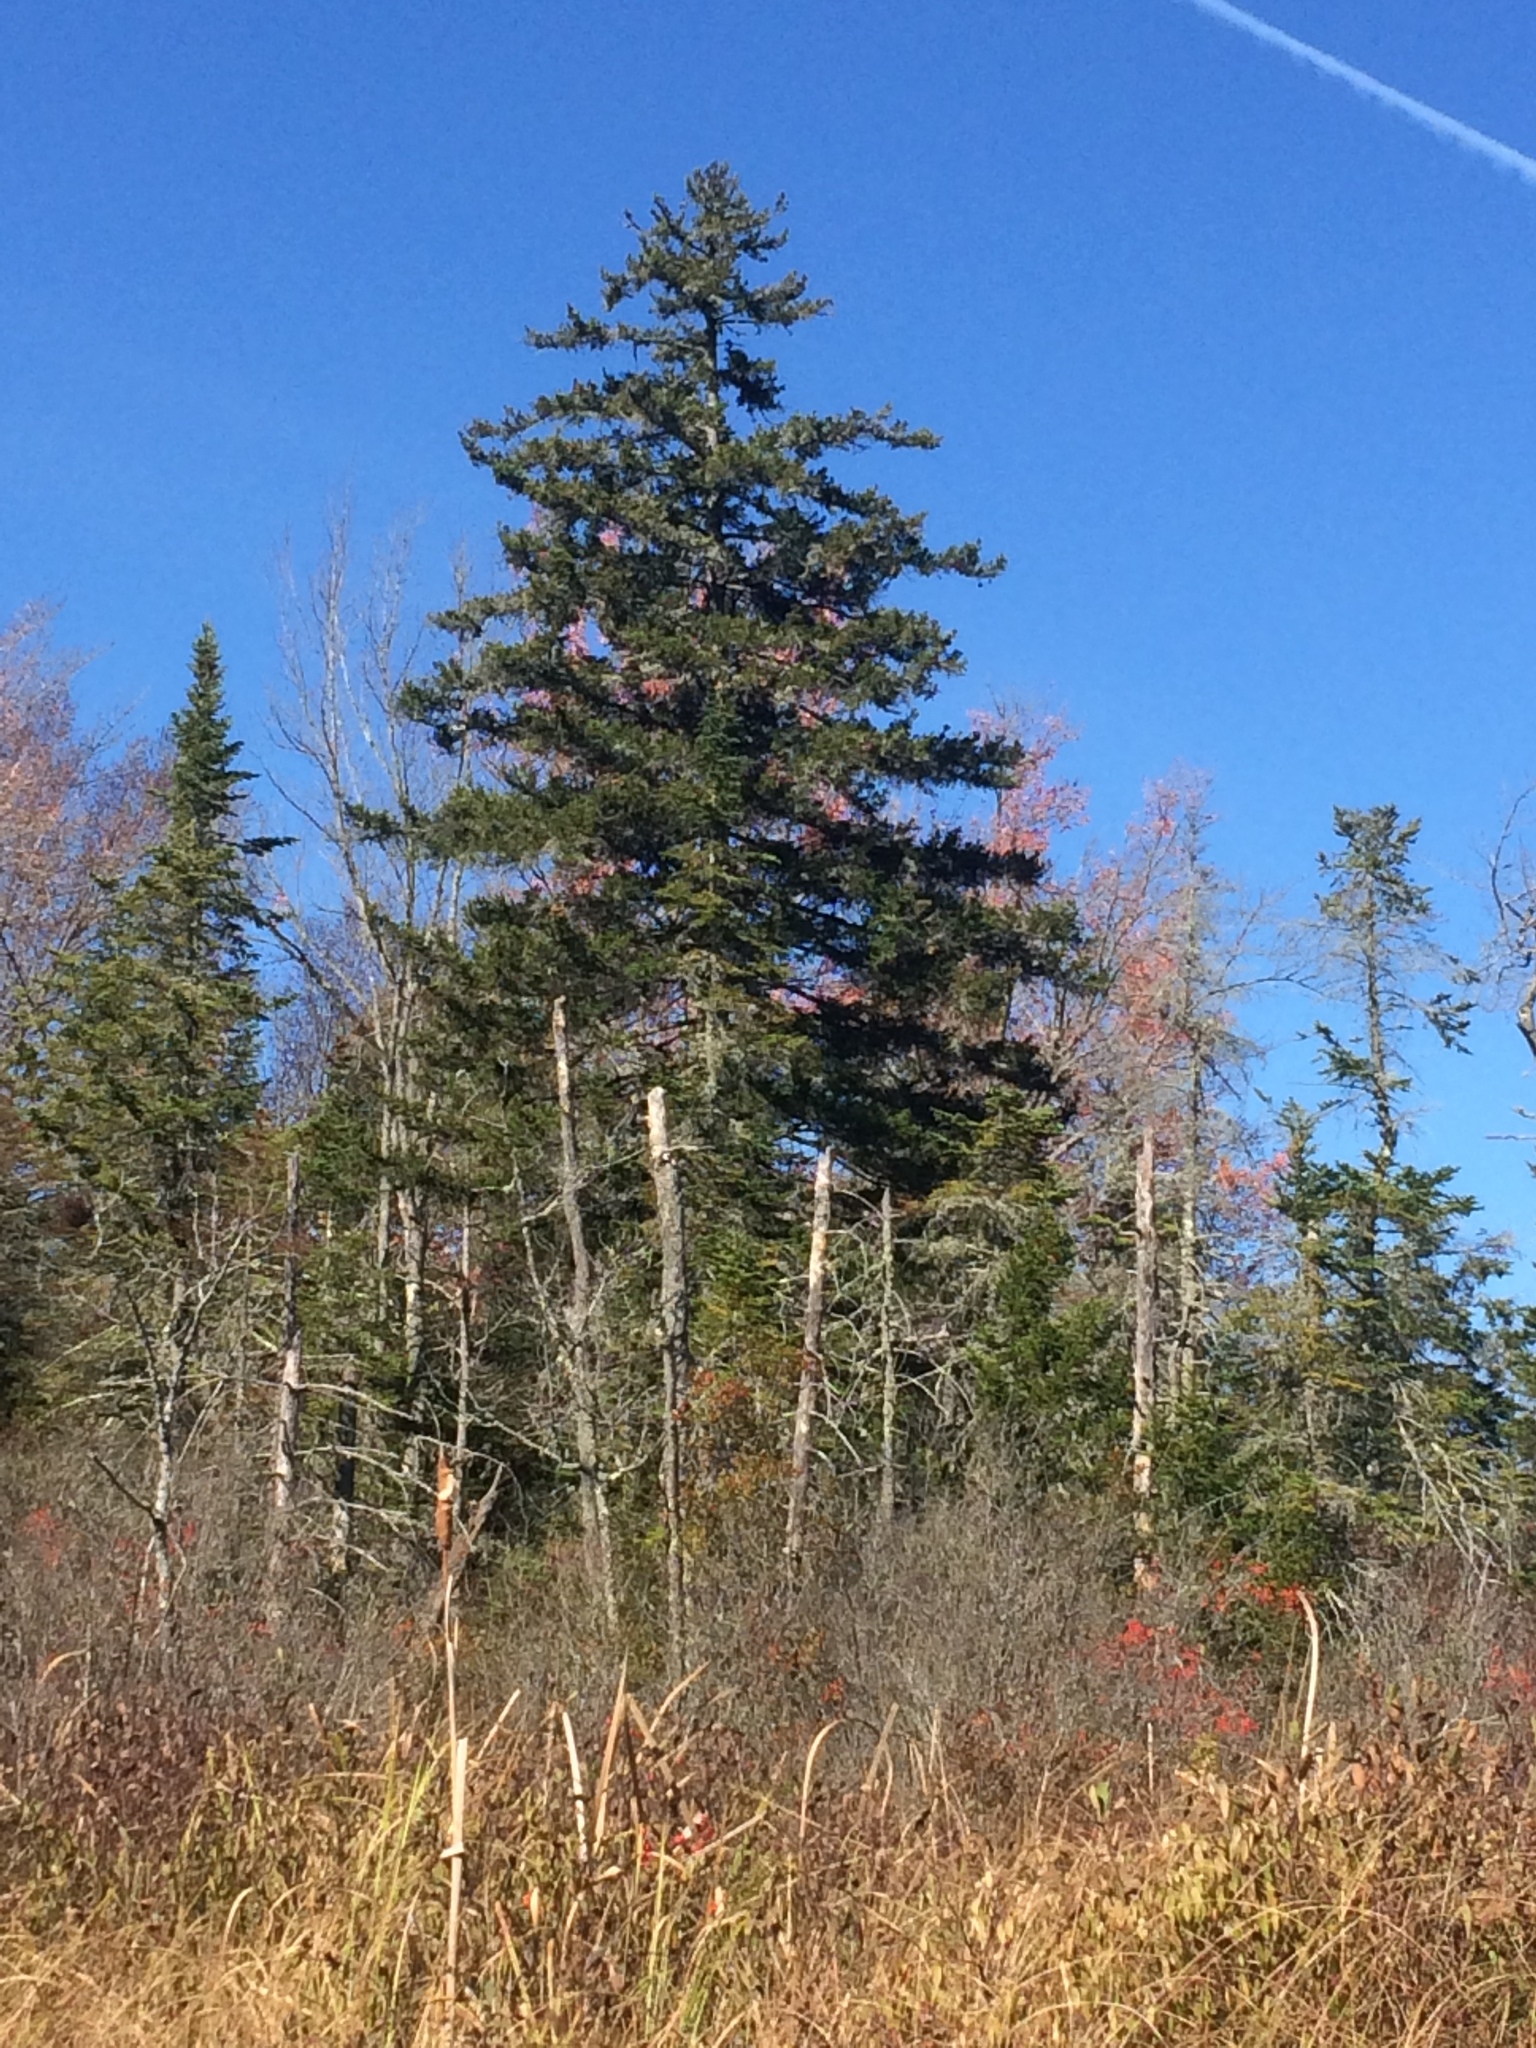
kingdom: Plantae
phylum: Tracheophyta
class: Pinopsida
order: Pinales
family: Pinaceae
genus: Picea
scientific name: Picea rubens
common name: Red spruce
